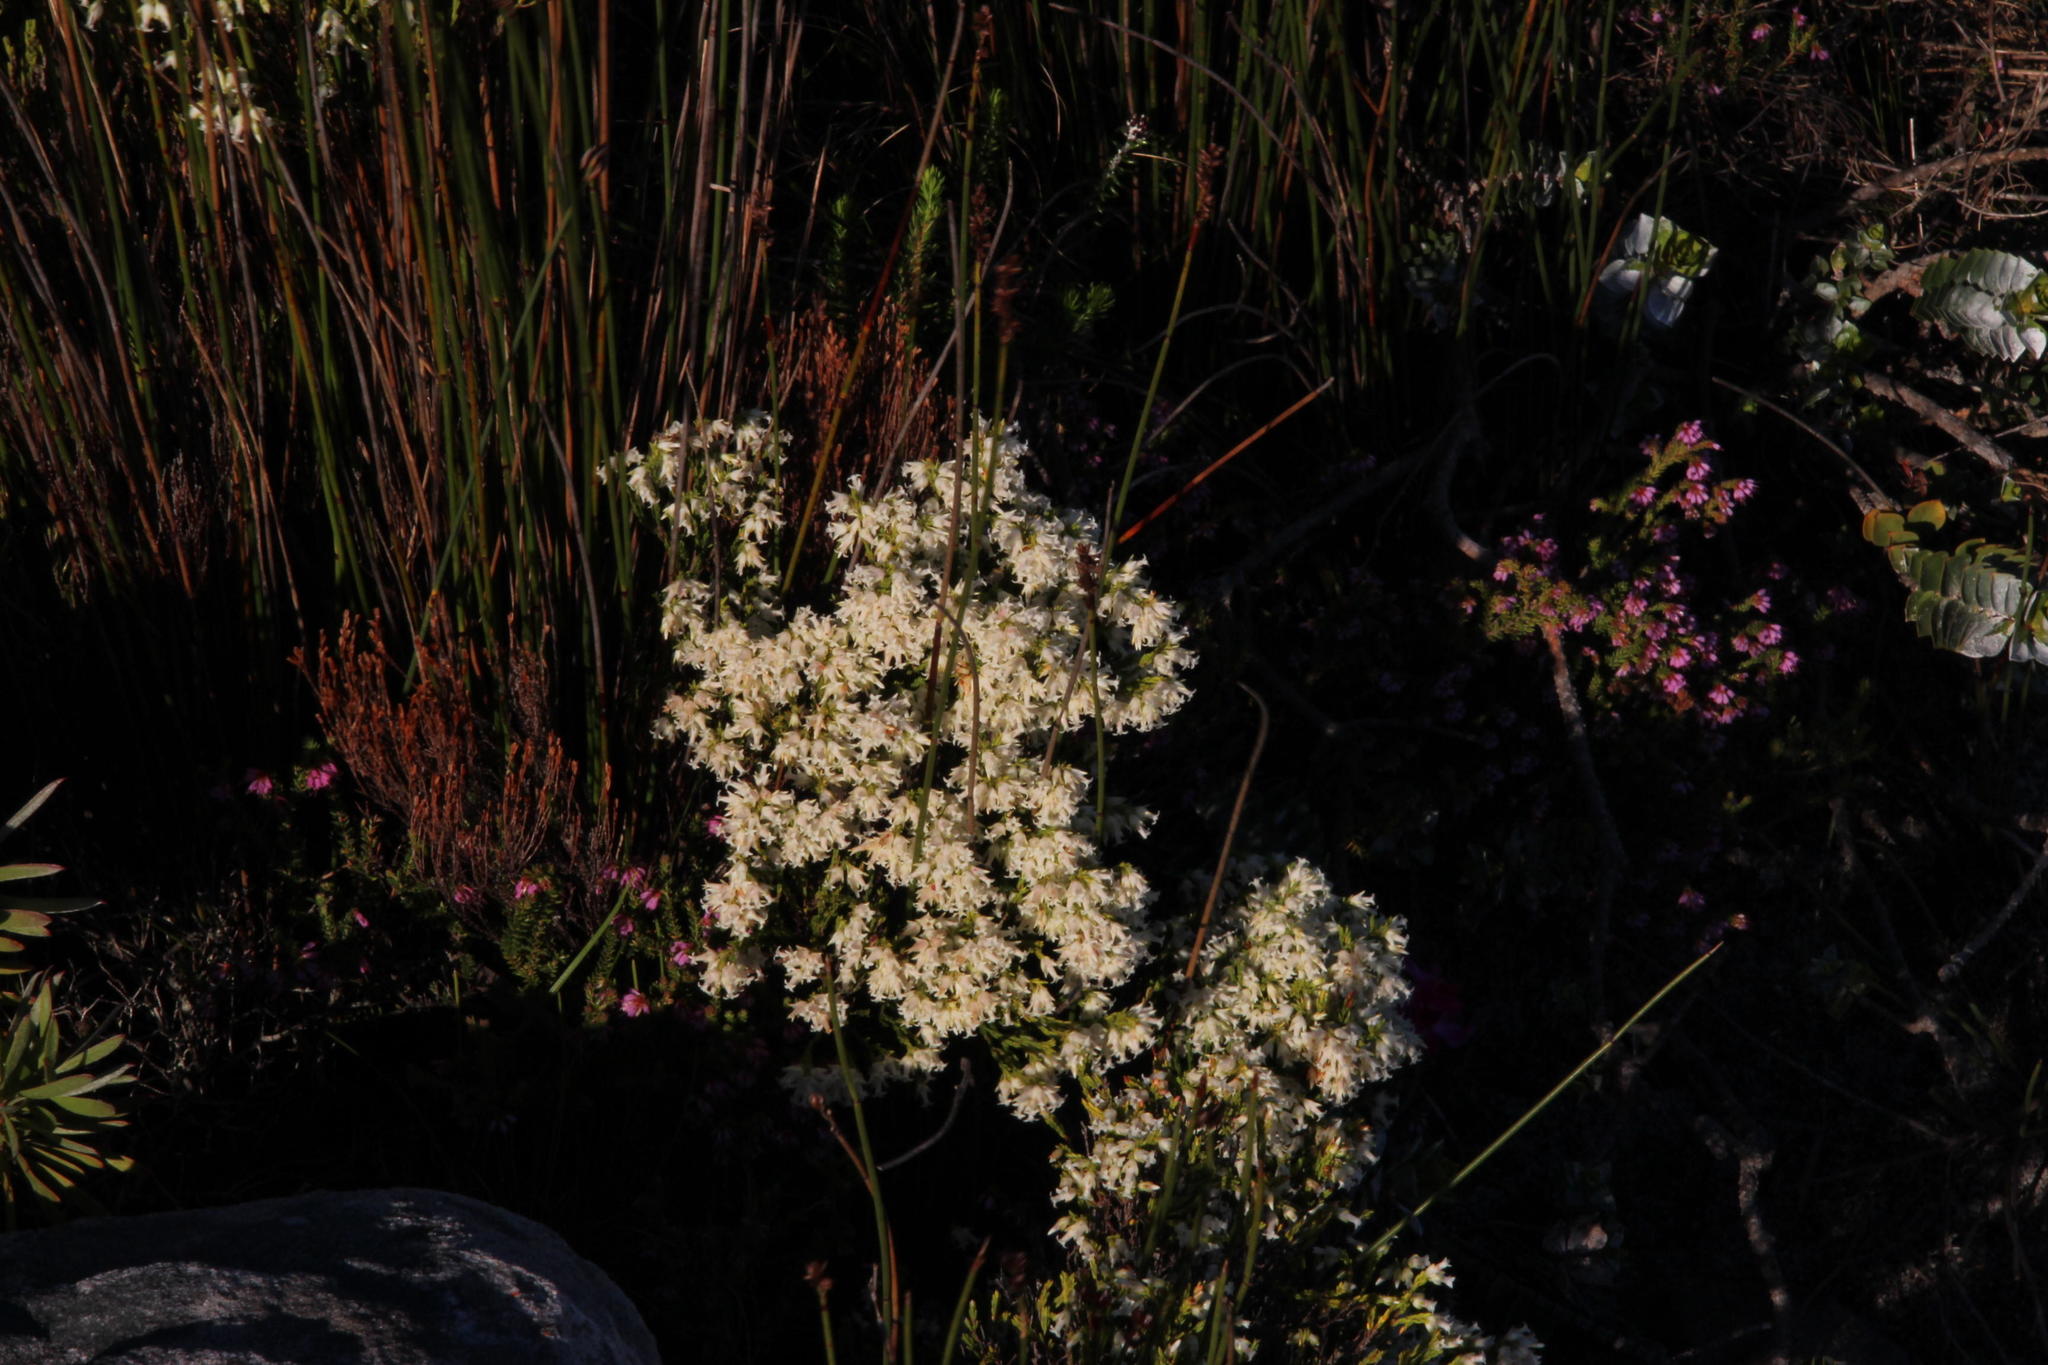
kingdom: Plantae
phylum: Tracheophyta
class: Magnoliopsida
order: Ericales
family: Ericaceae
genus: Erica
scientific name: Erica lutea
